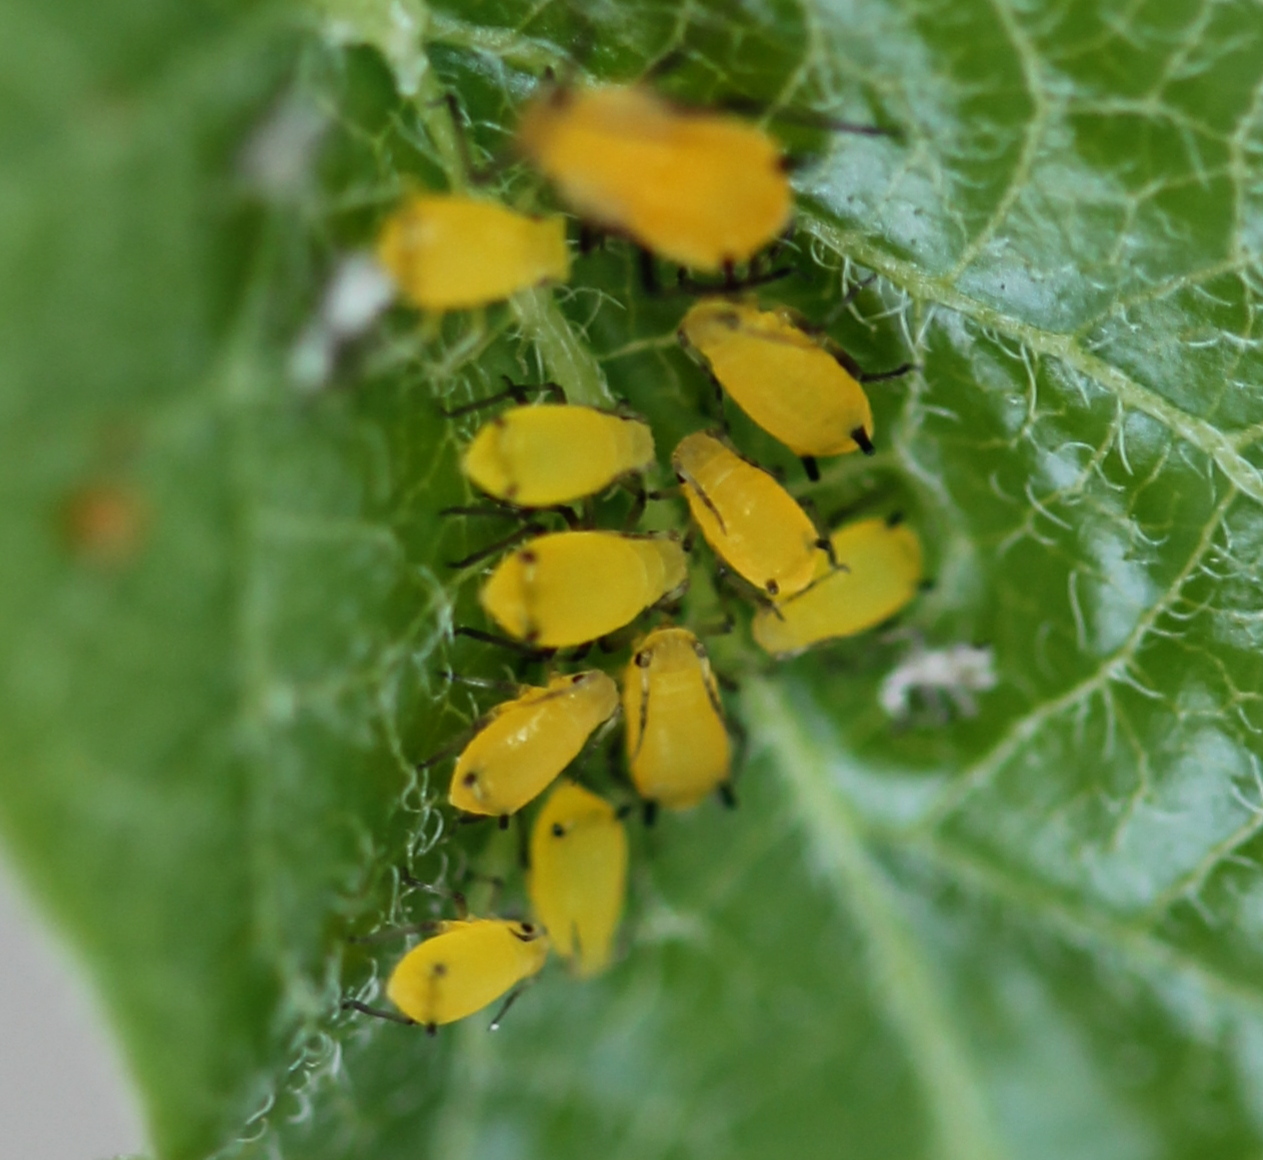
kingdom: Animalia
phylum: Arthropoda
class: Insecta
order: Hemiptera
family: Aphididae
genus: Aphis
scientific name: Aphis nerii
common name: Oleander aphid
